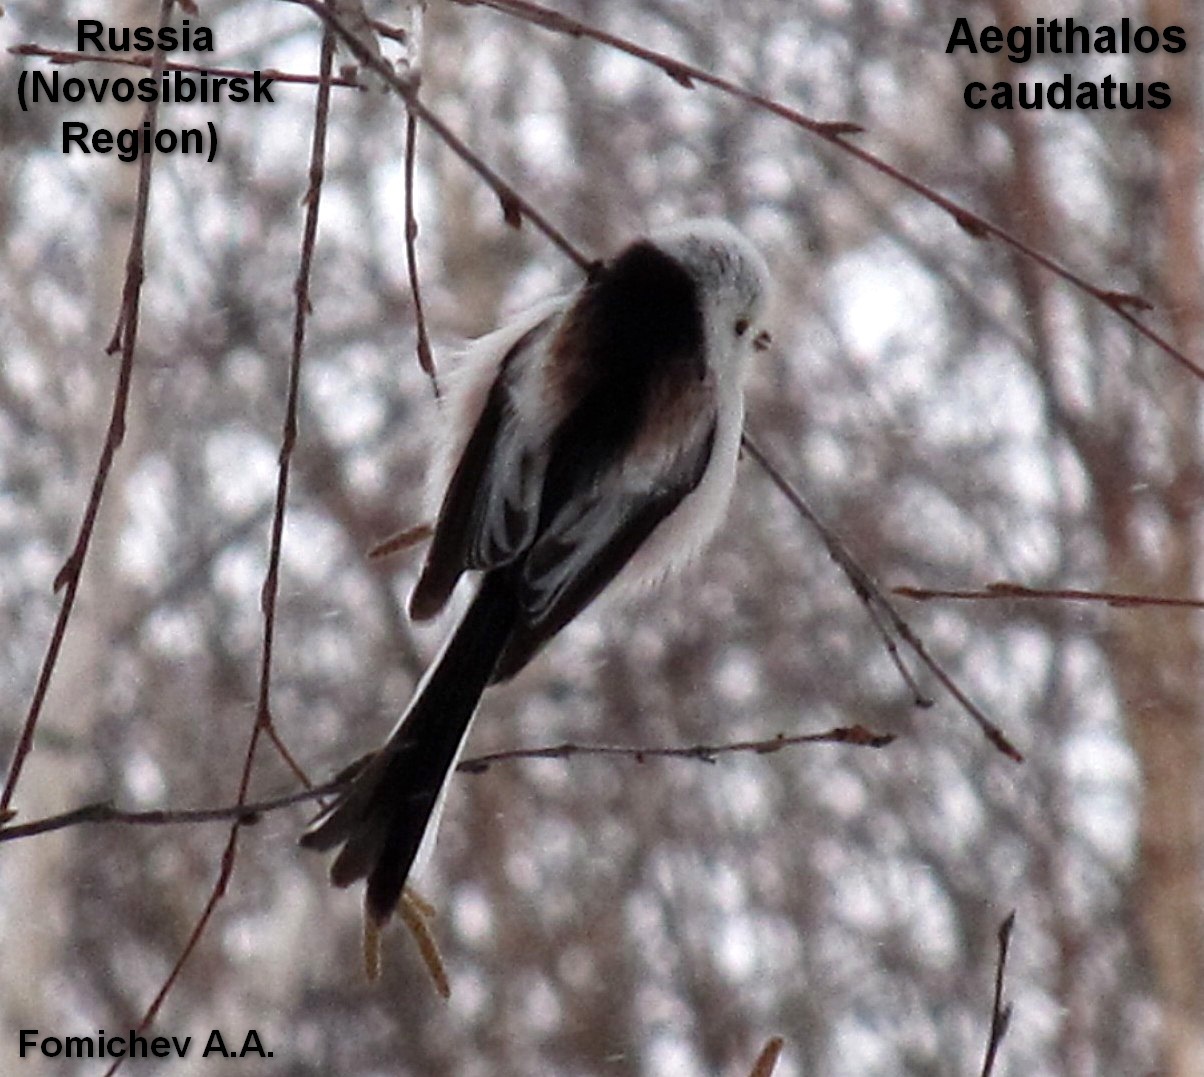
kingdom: Animalia
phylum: Chordata
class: Aves
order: Passeriformes
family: Aegithalidae
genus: Aegithalos
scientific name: Aegithalos caudatus
